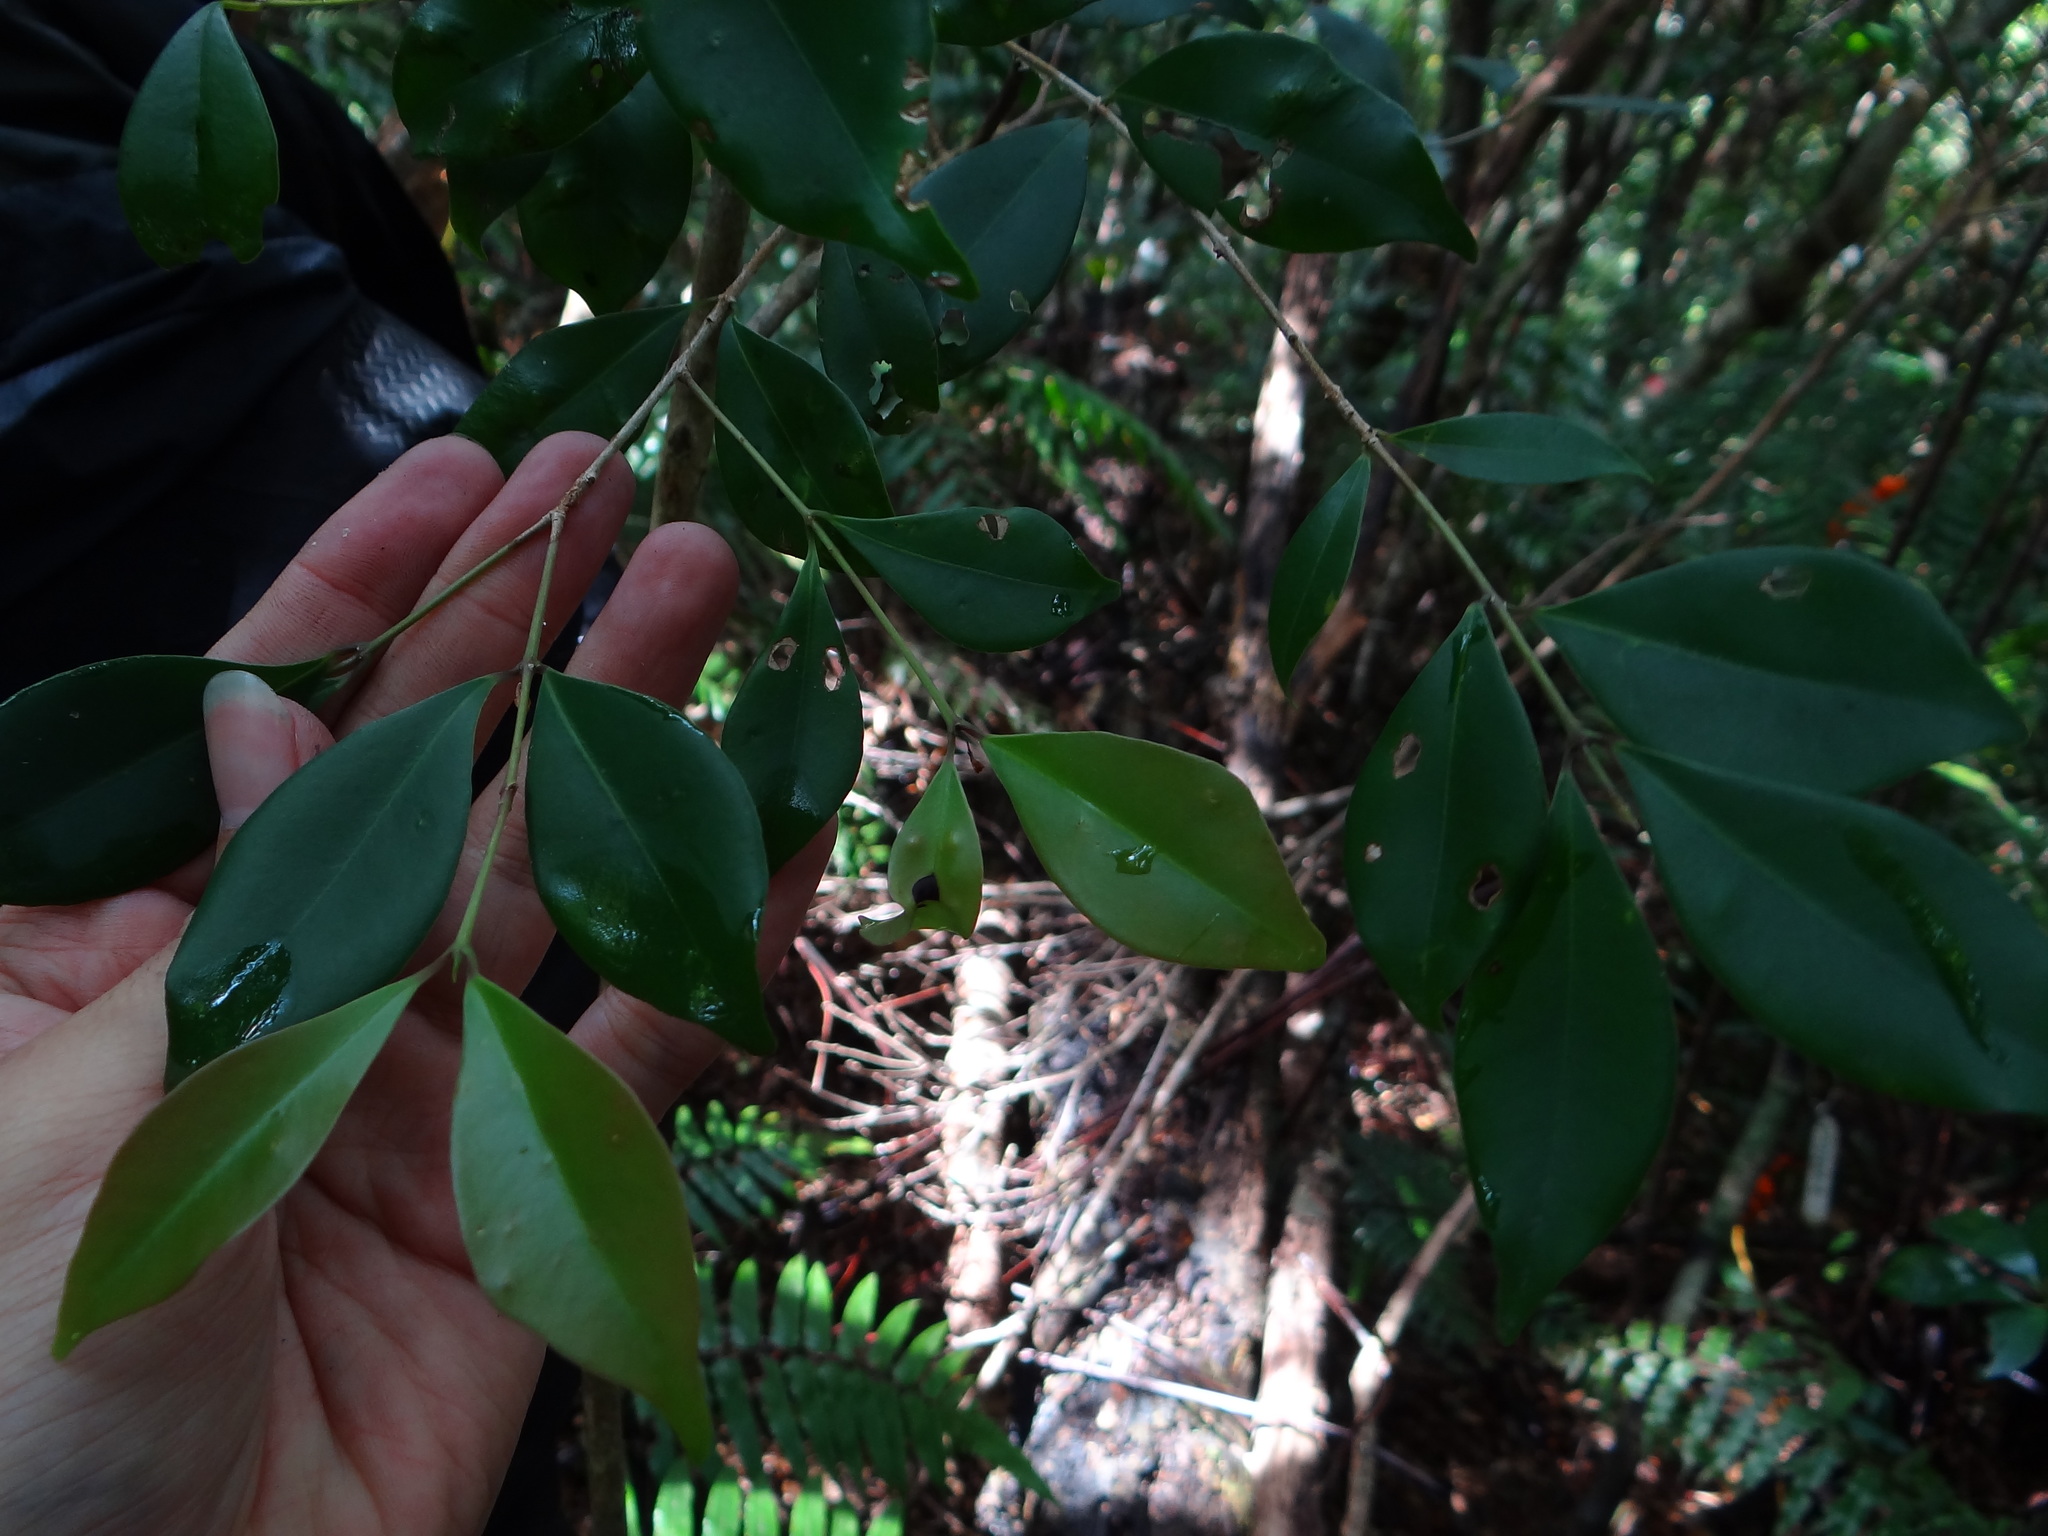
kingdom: Plantae
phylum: Tracheophyta
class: Magnoliopsida
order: Myrtales
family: Myrtaceae
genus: Syzygium
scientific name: Syzygium euphlebium
